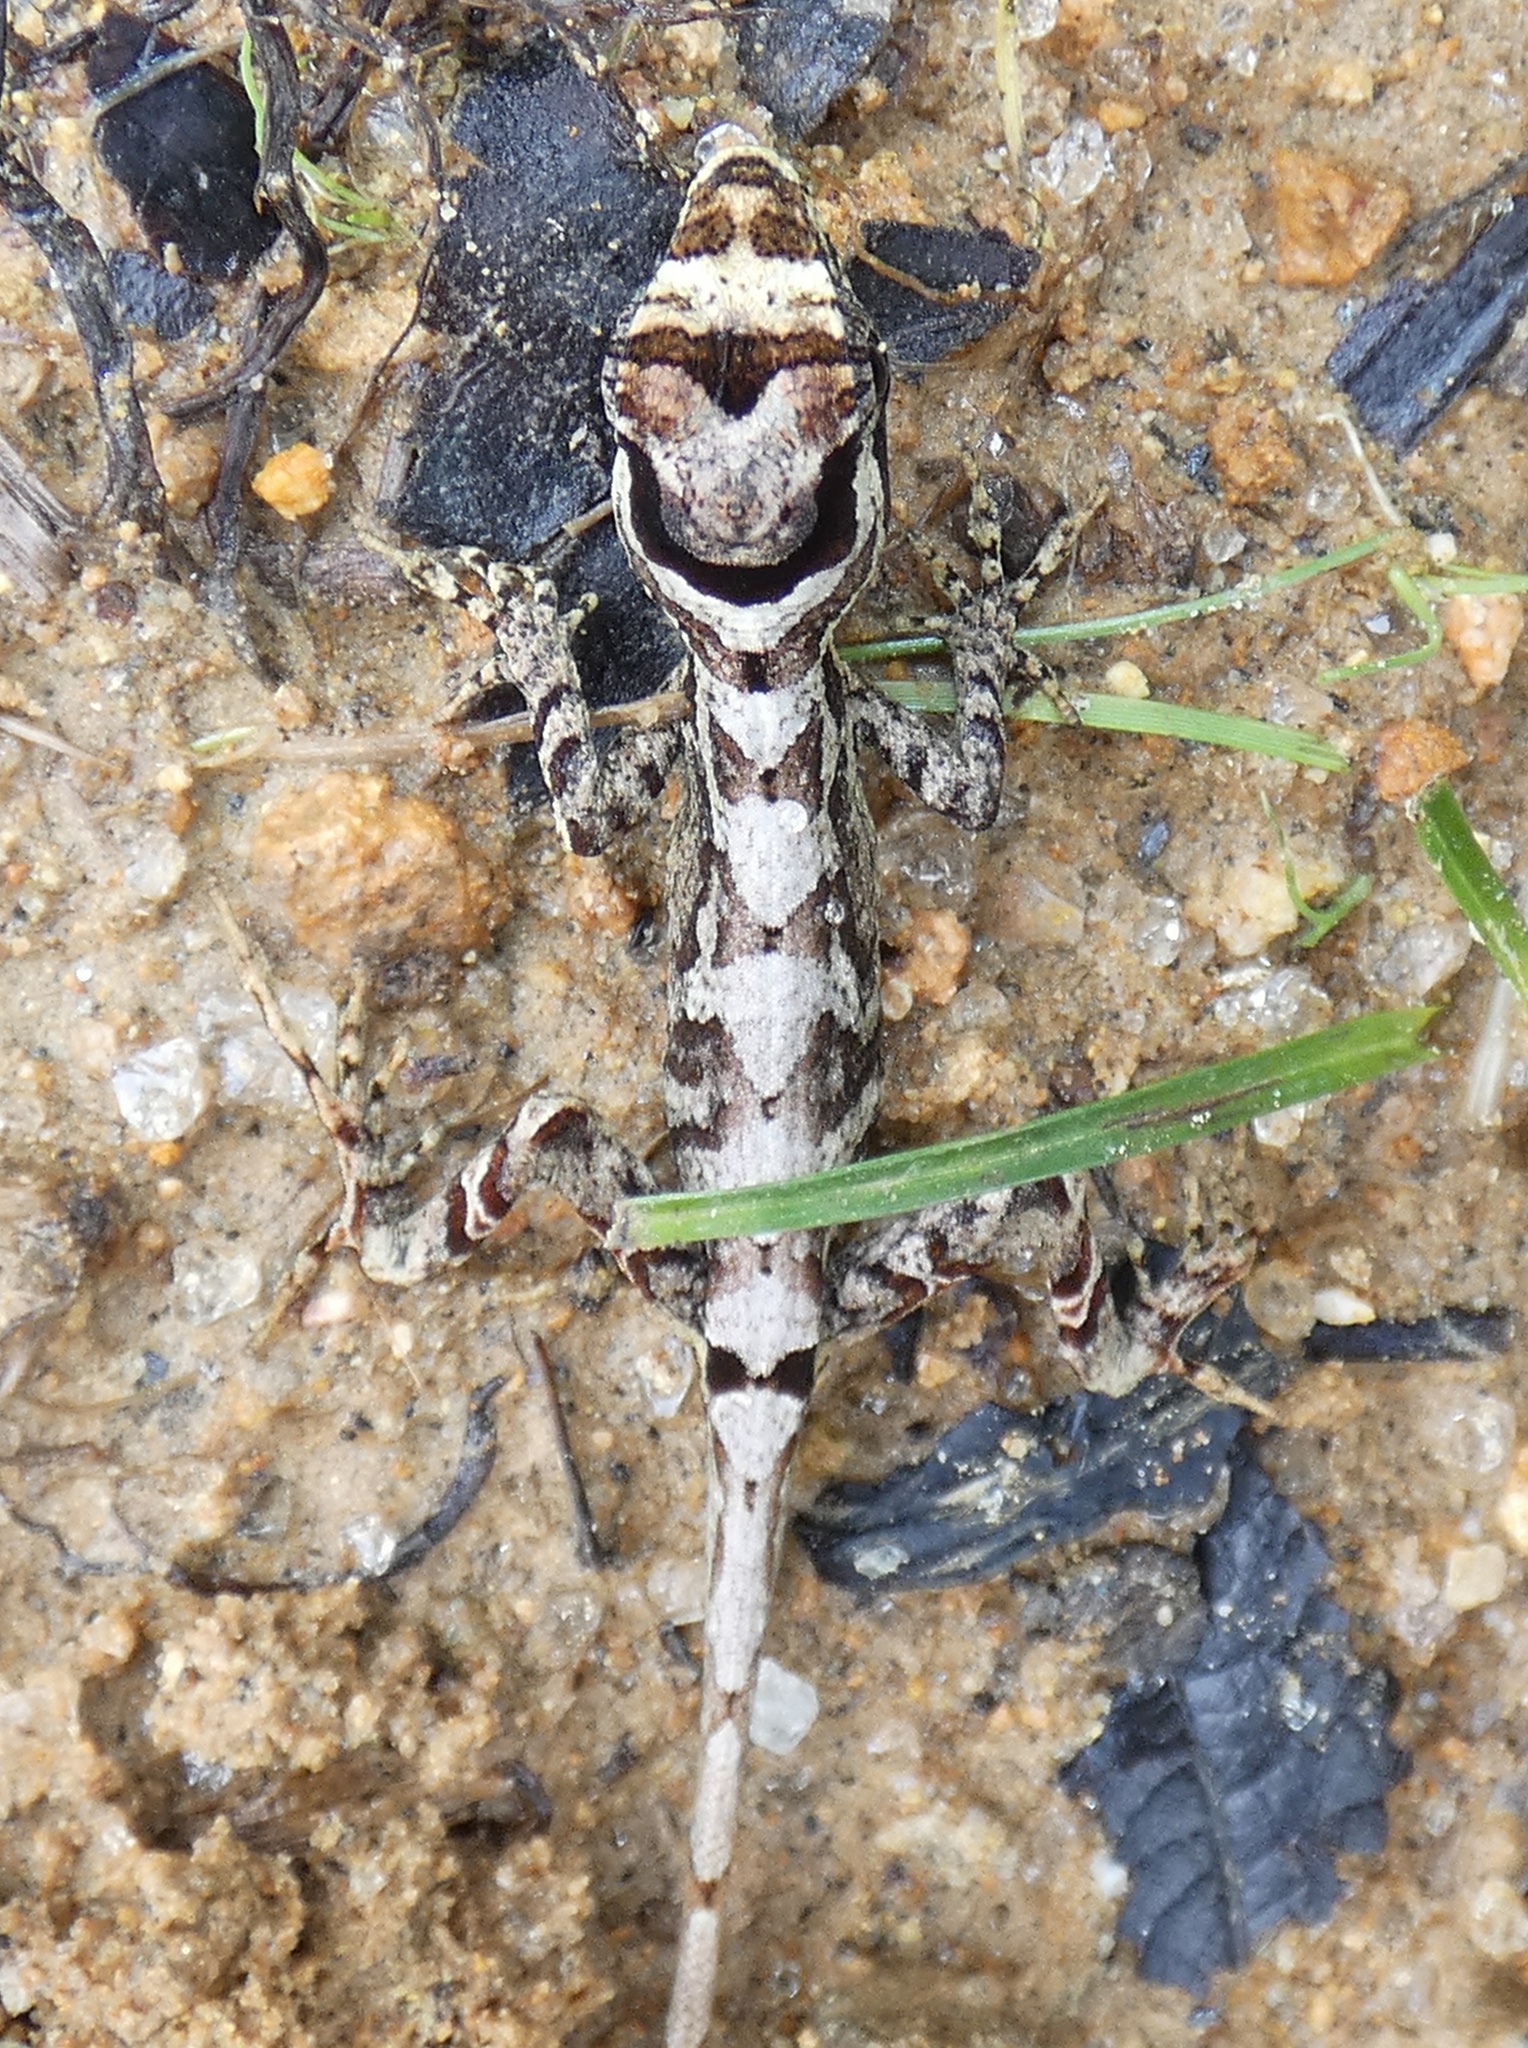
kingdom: Animalia
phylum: Chordata
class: Squamata
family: Dactyloidae
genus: Anolis
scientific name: Anolis lemurinus
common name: Ghost anole
